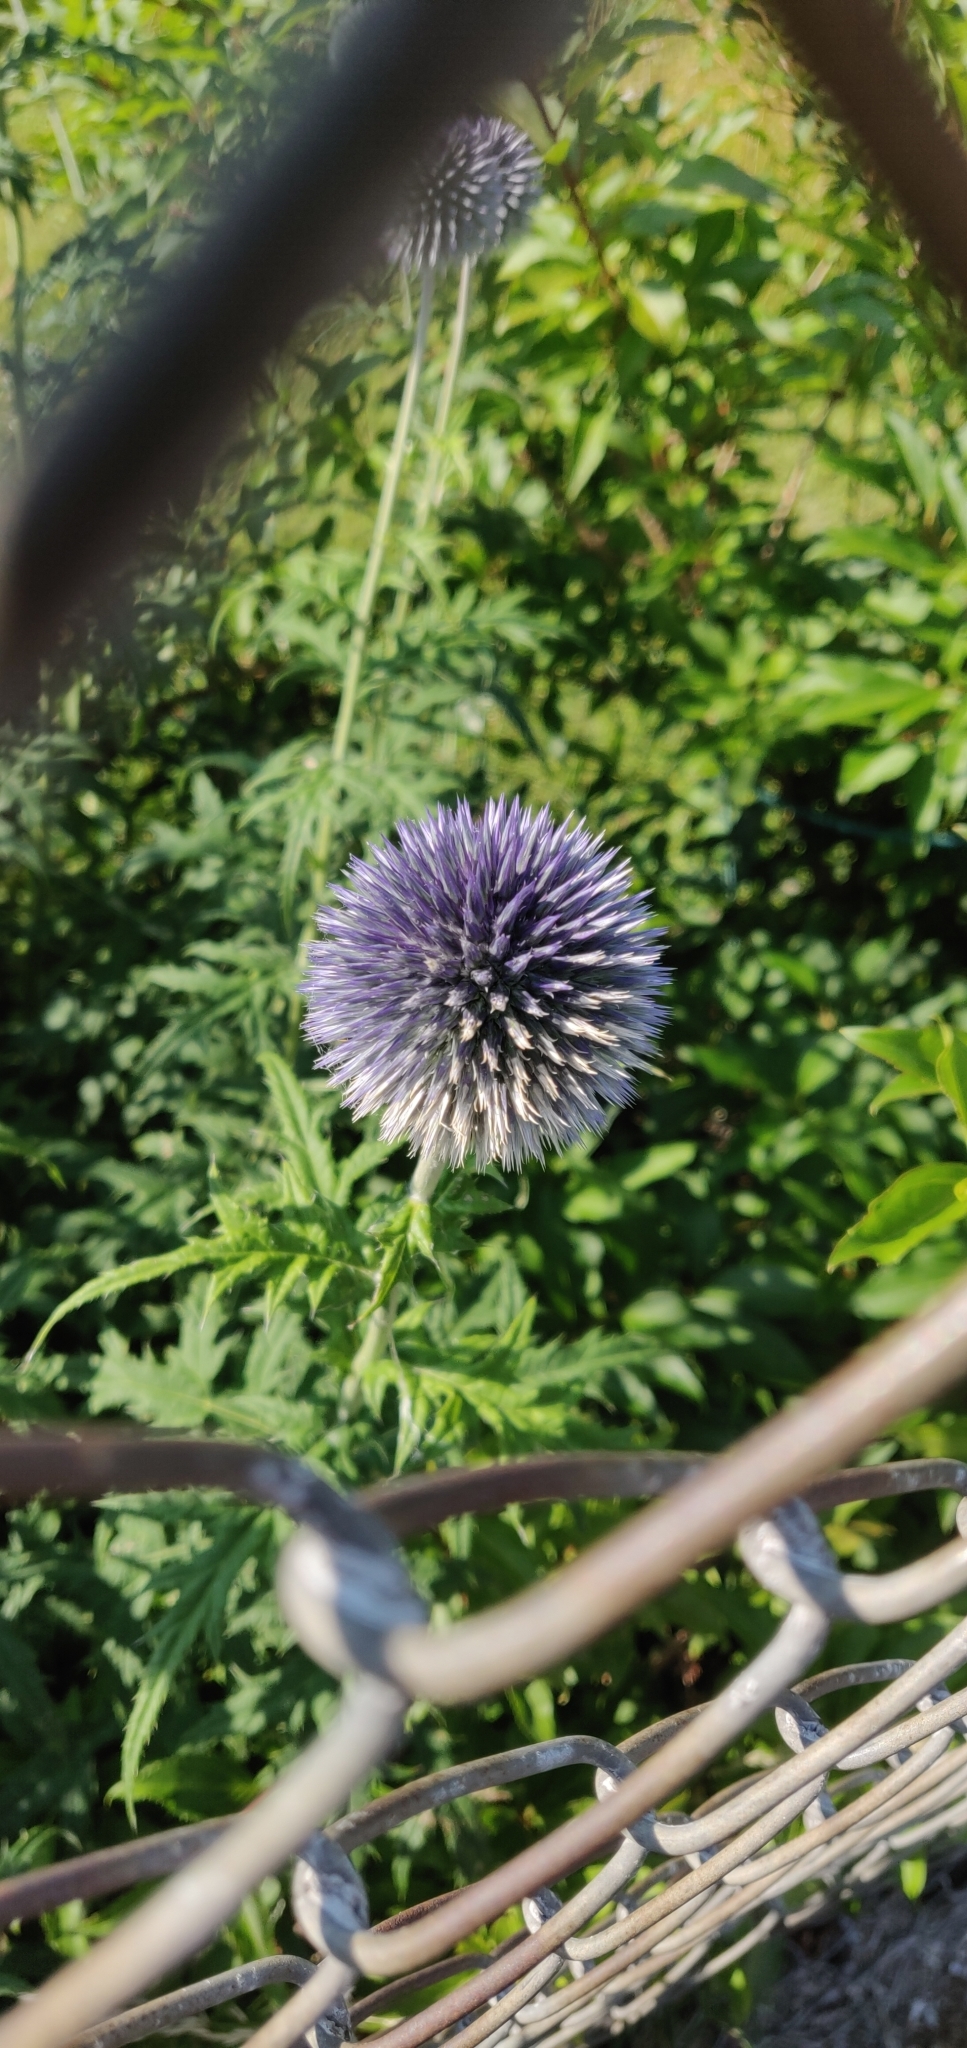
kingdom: Plantae
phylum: Tracheophyta
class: Magnoliopsida
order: Asterales
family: Asteraceae
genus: Echinops
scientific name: Echinops bannaticus
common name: Blue globe-thistle
